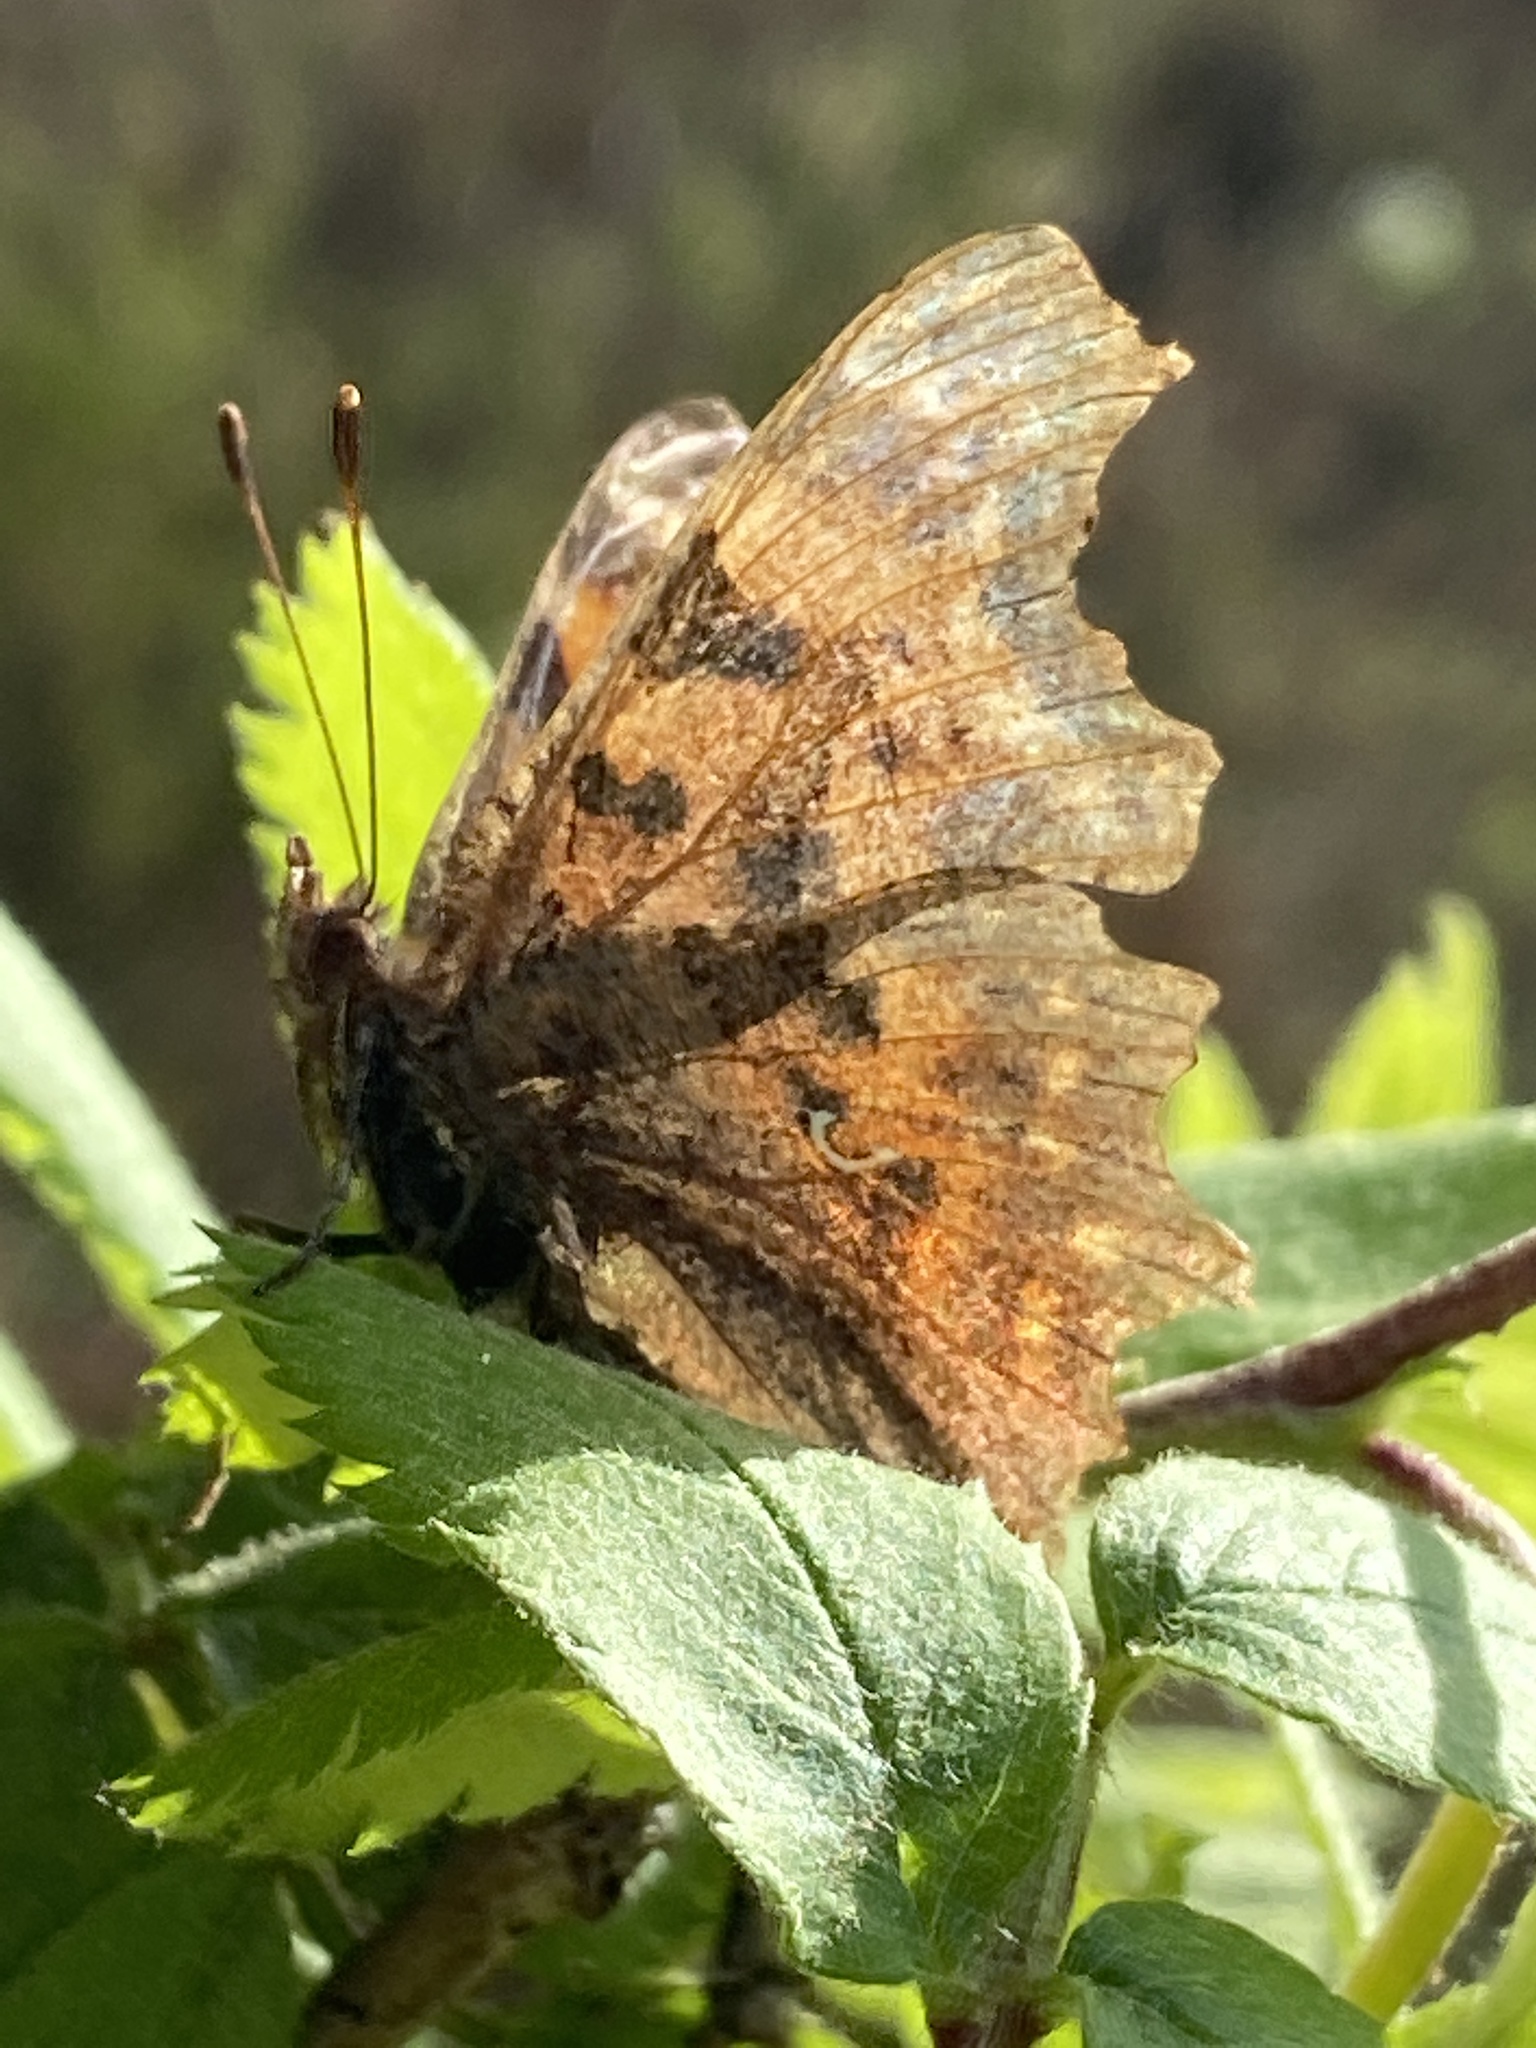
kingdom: Animalia
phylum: Arthropoda
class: Insecta
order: Lepidoptera
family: Nymphalidae
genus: Polygonia
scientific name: Polygonia c-album
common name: Comma
